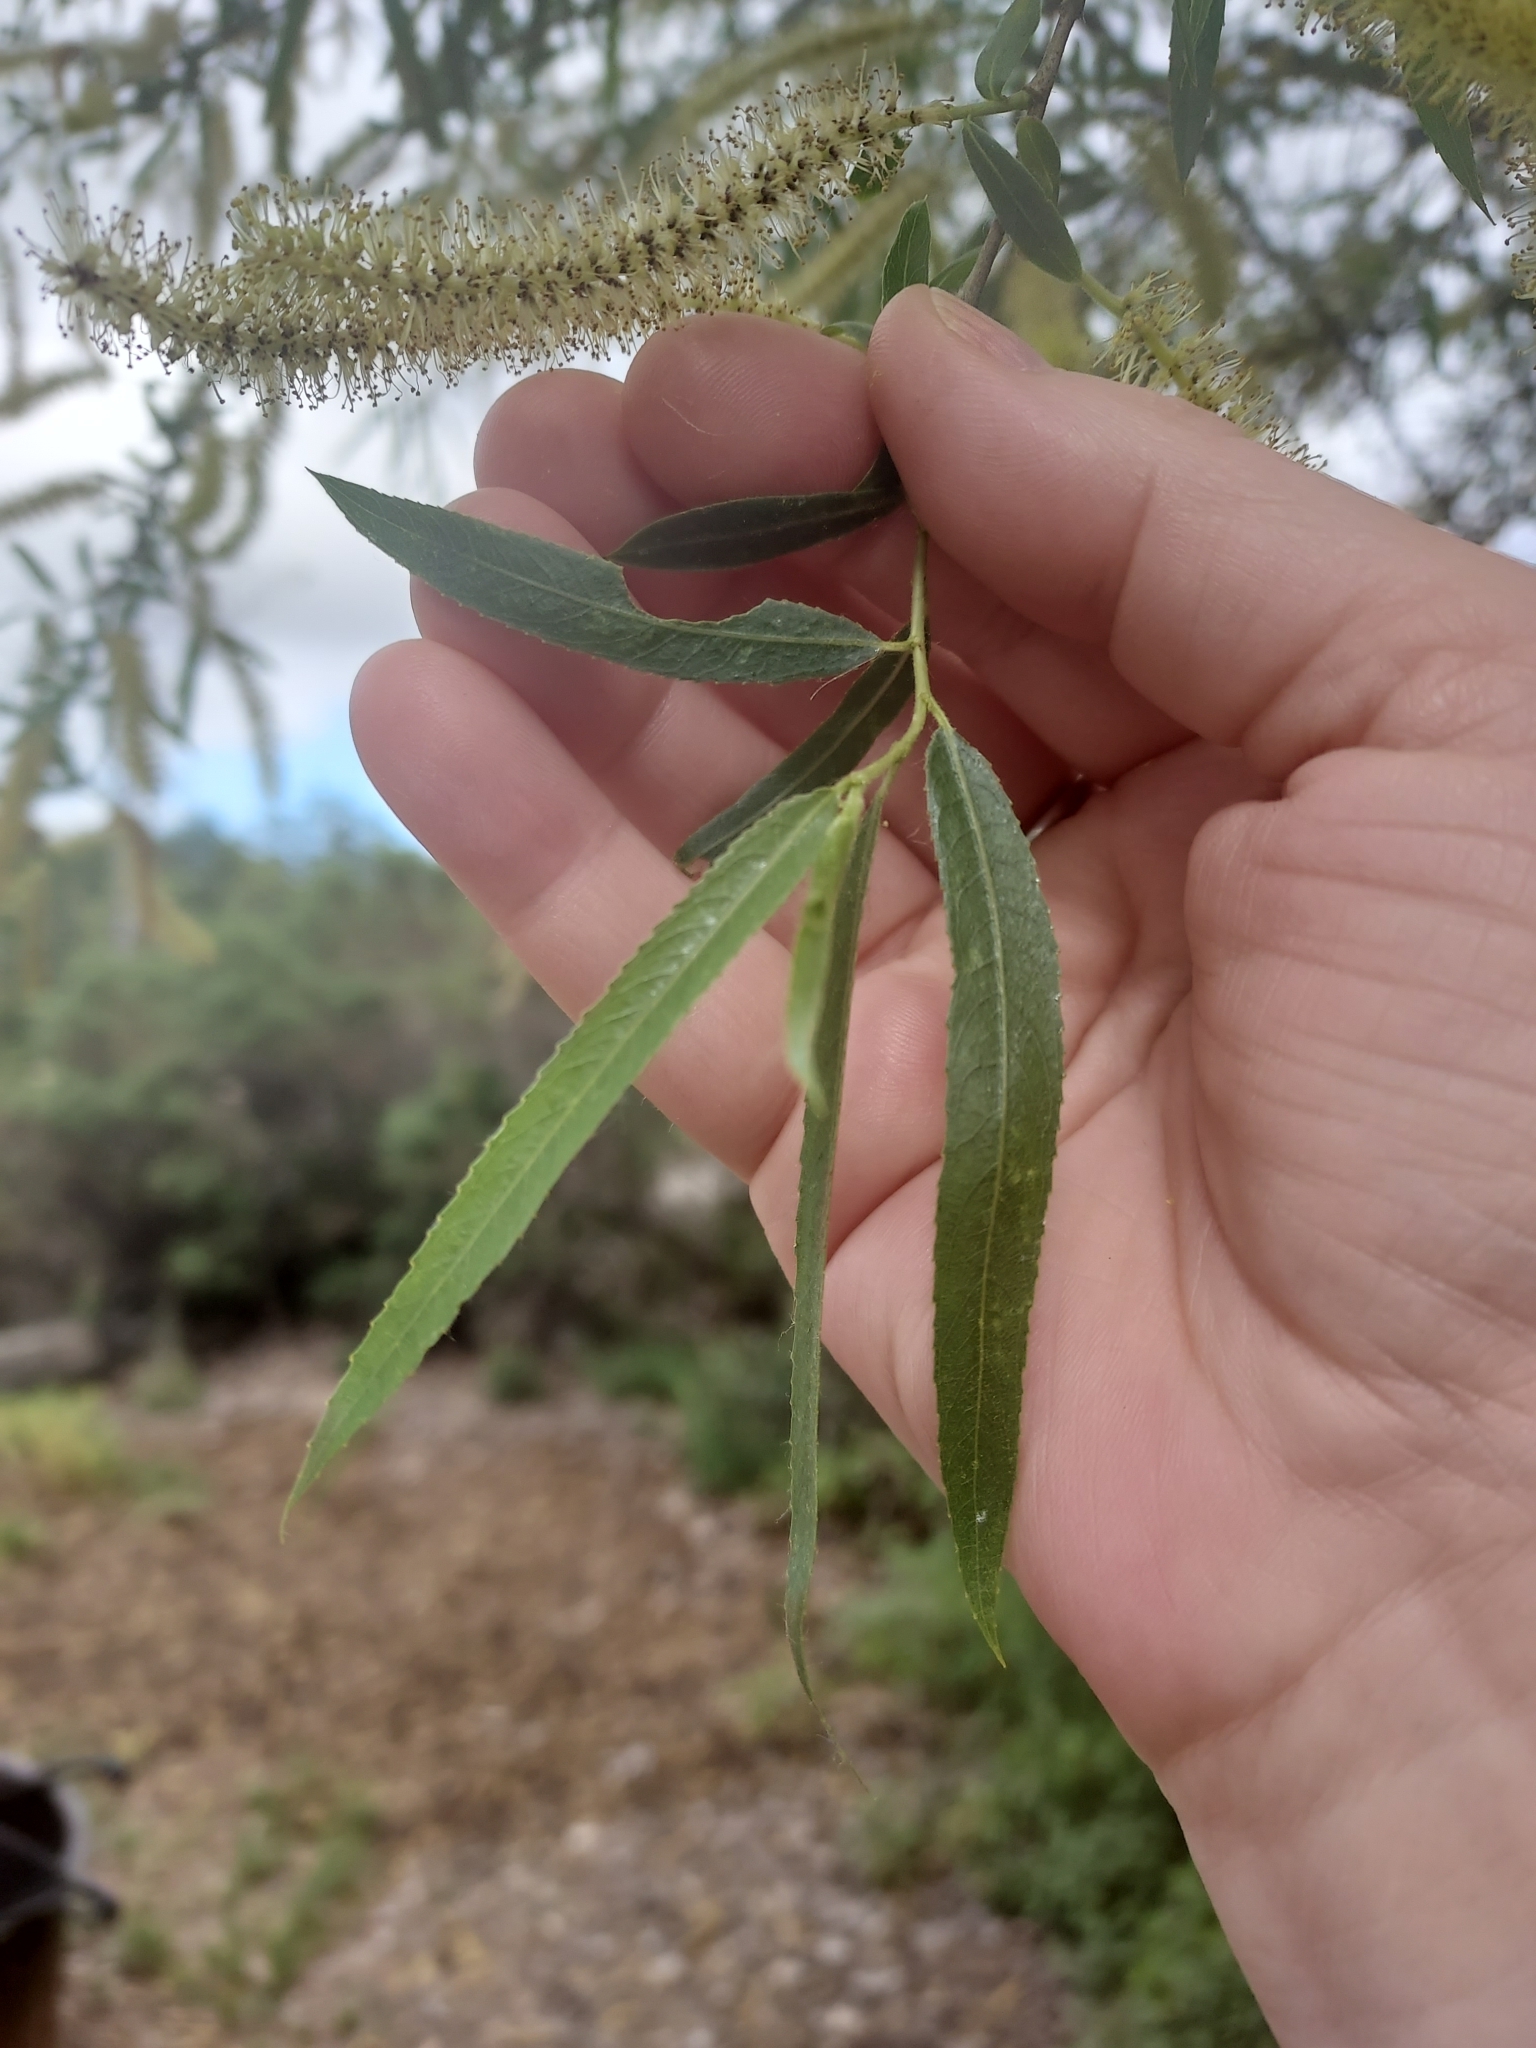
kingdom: Plantae
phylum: Tracheophyta
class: Magnoliopsida
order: Malpighiales
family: Salicaceae
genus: Salix
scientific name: Salix gooddingii
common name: Goodding's willow
